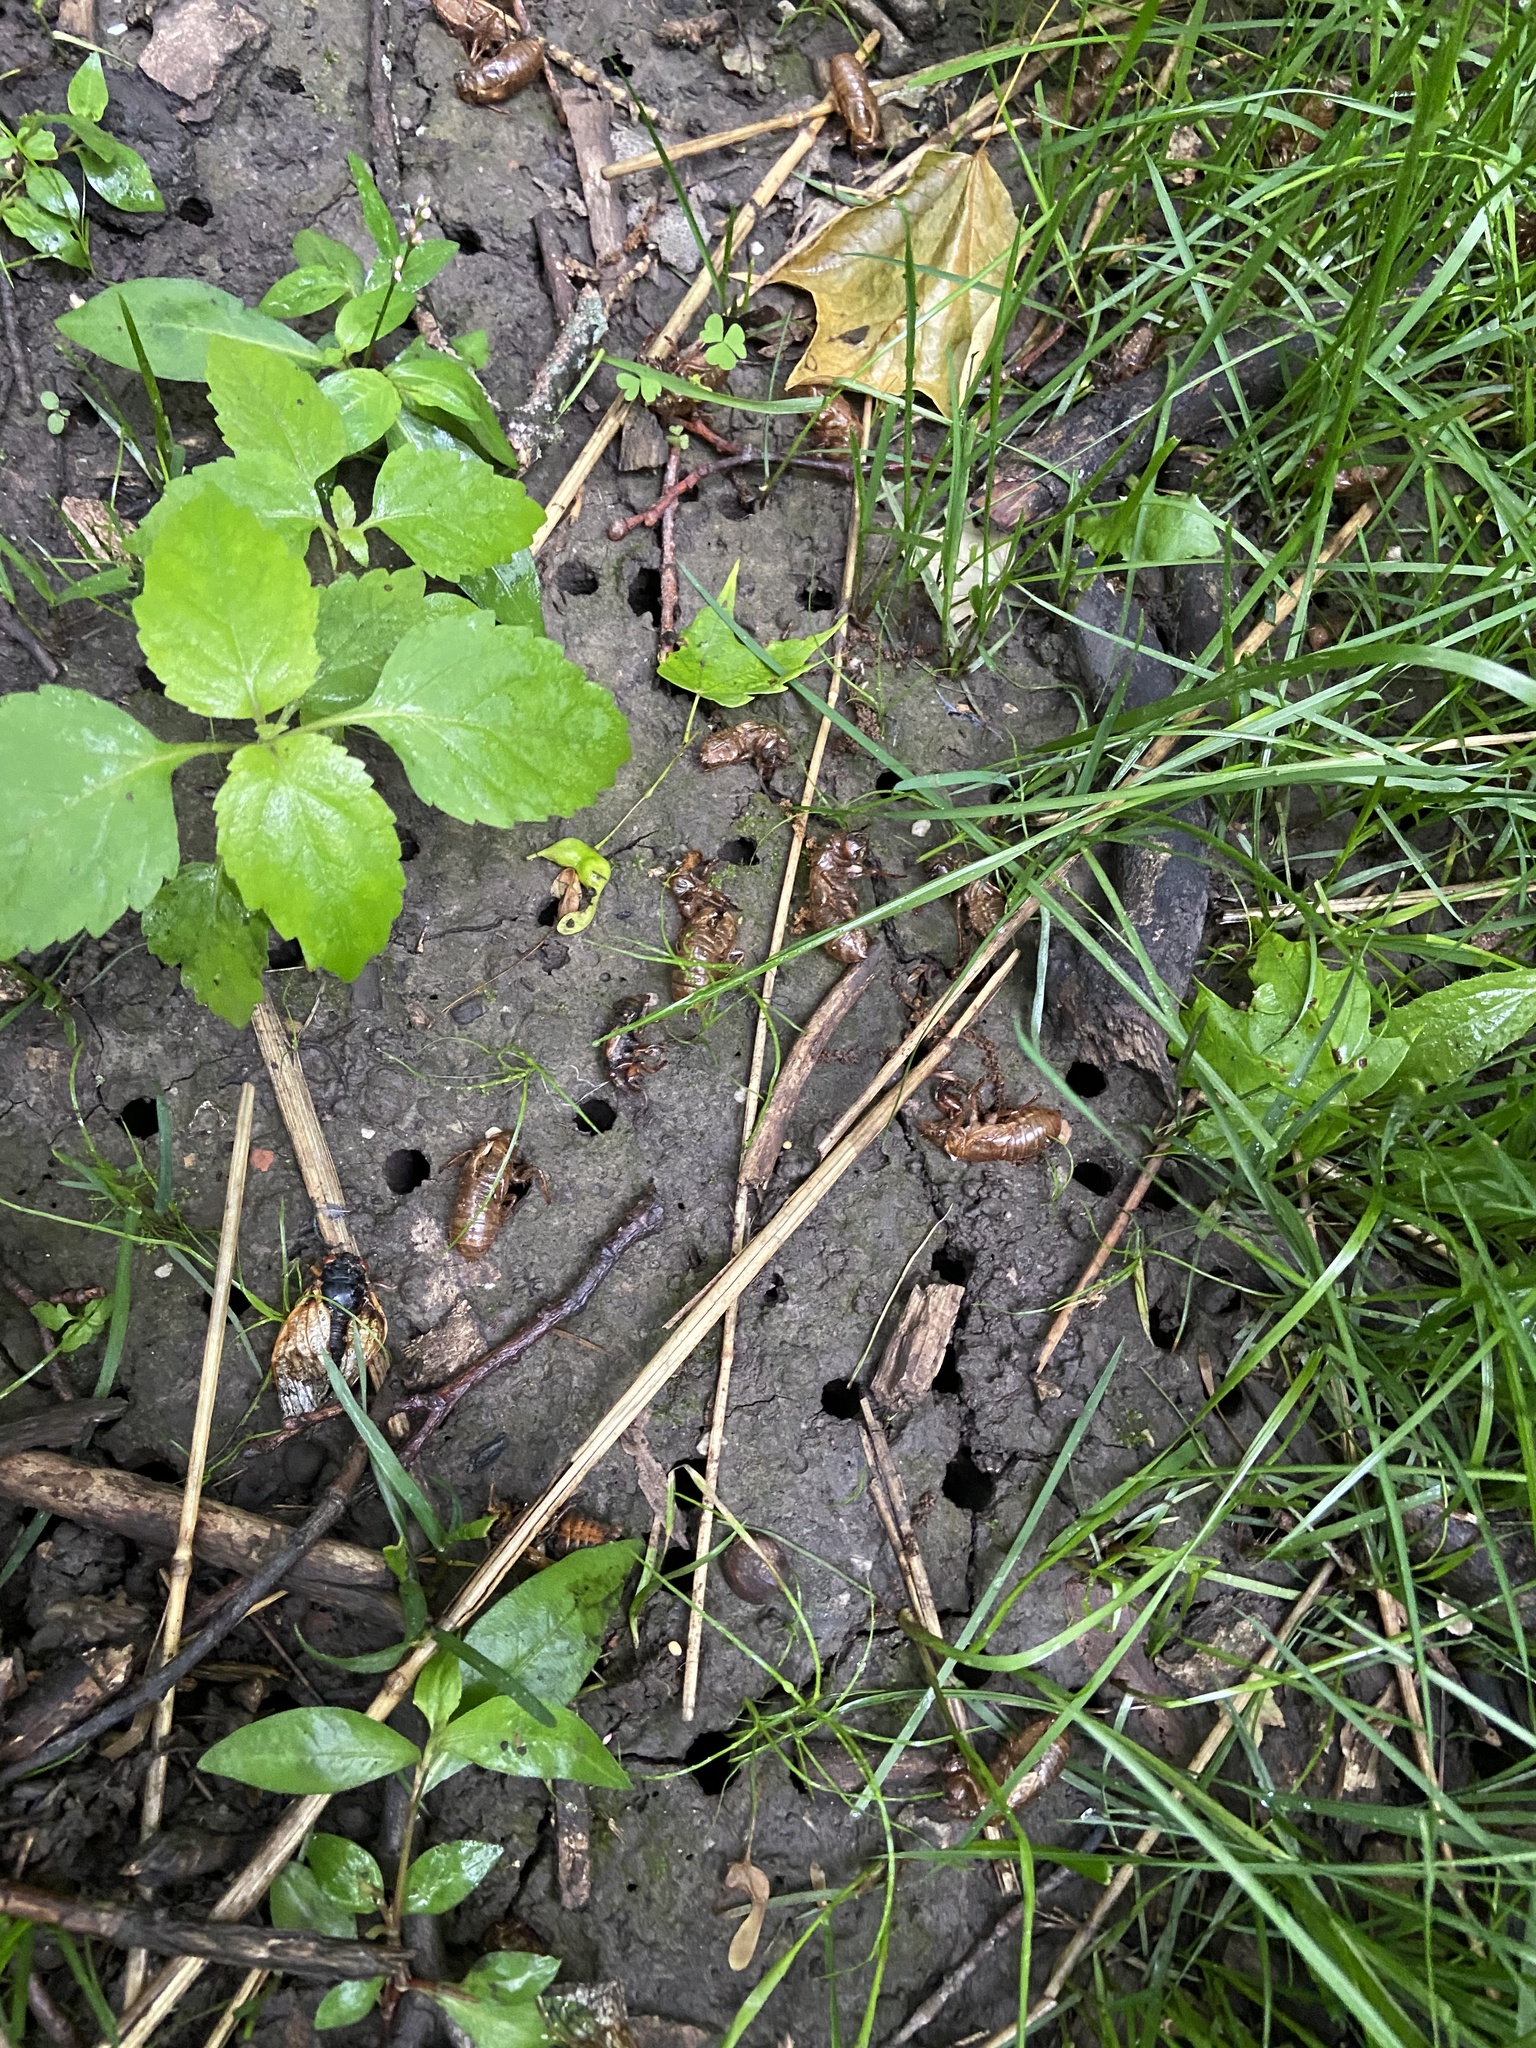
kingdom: Animalia
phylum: Arthropoda
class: Insecta
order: Hemiptera
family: Cicadidae
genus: Magicicada
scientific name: Magicicada
